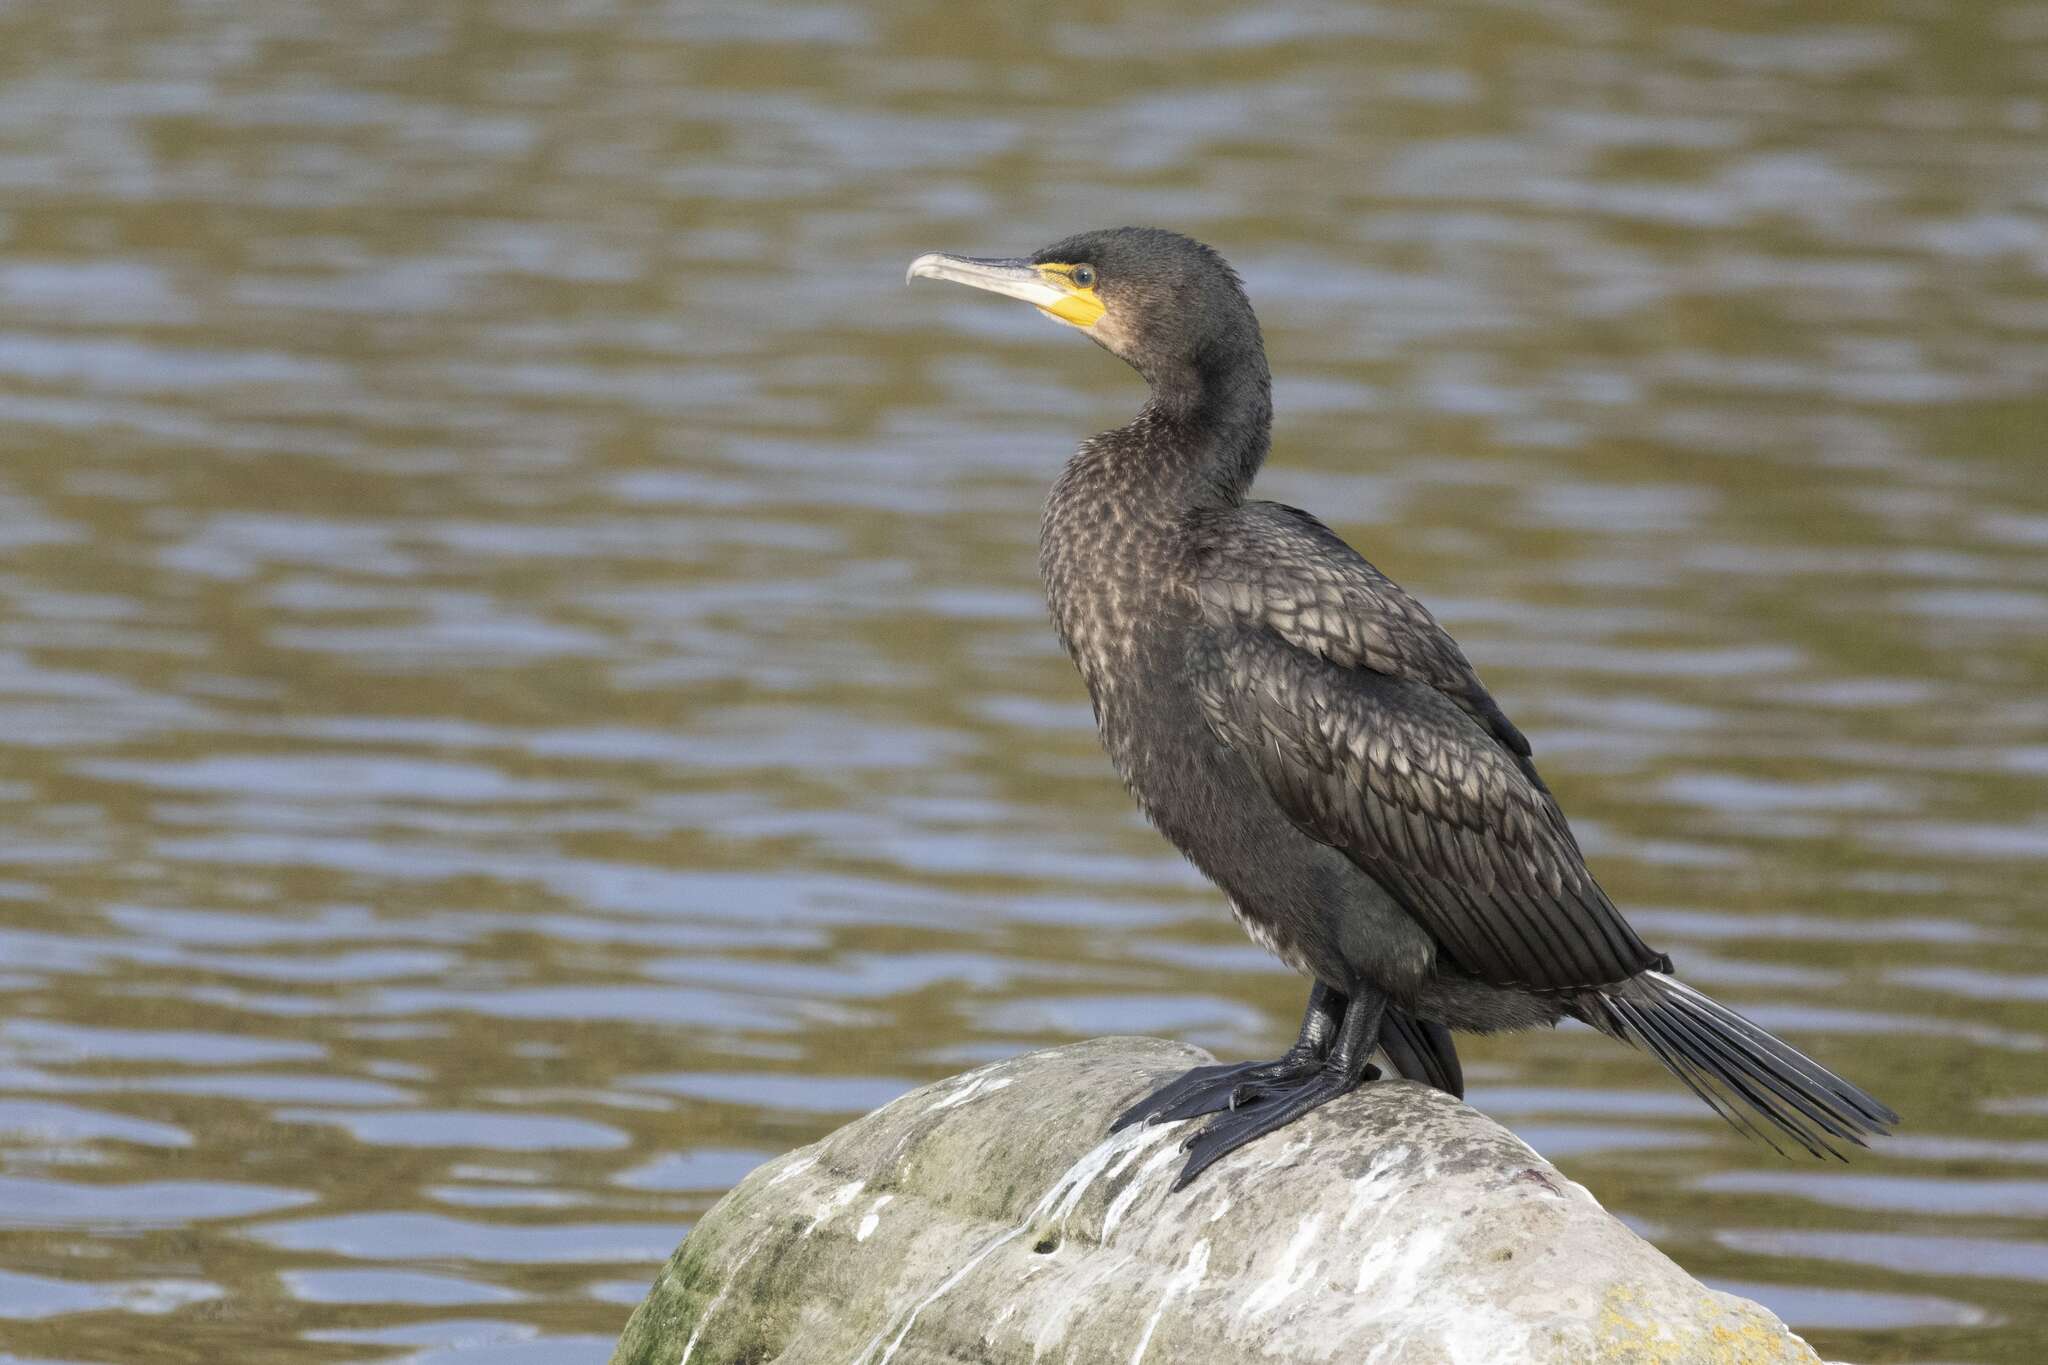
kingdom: Animalia
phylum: Chordata
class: Aves
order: Suliformes
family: Phalacrocoracidae
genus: Phalacrocorax
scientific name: Phalacrocorax carbo
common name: Great cormorant
